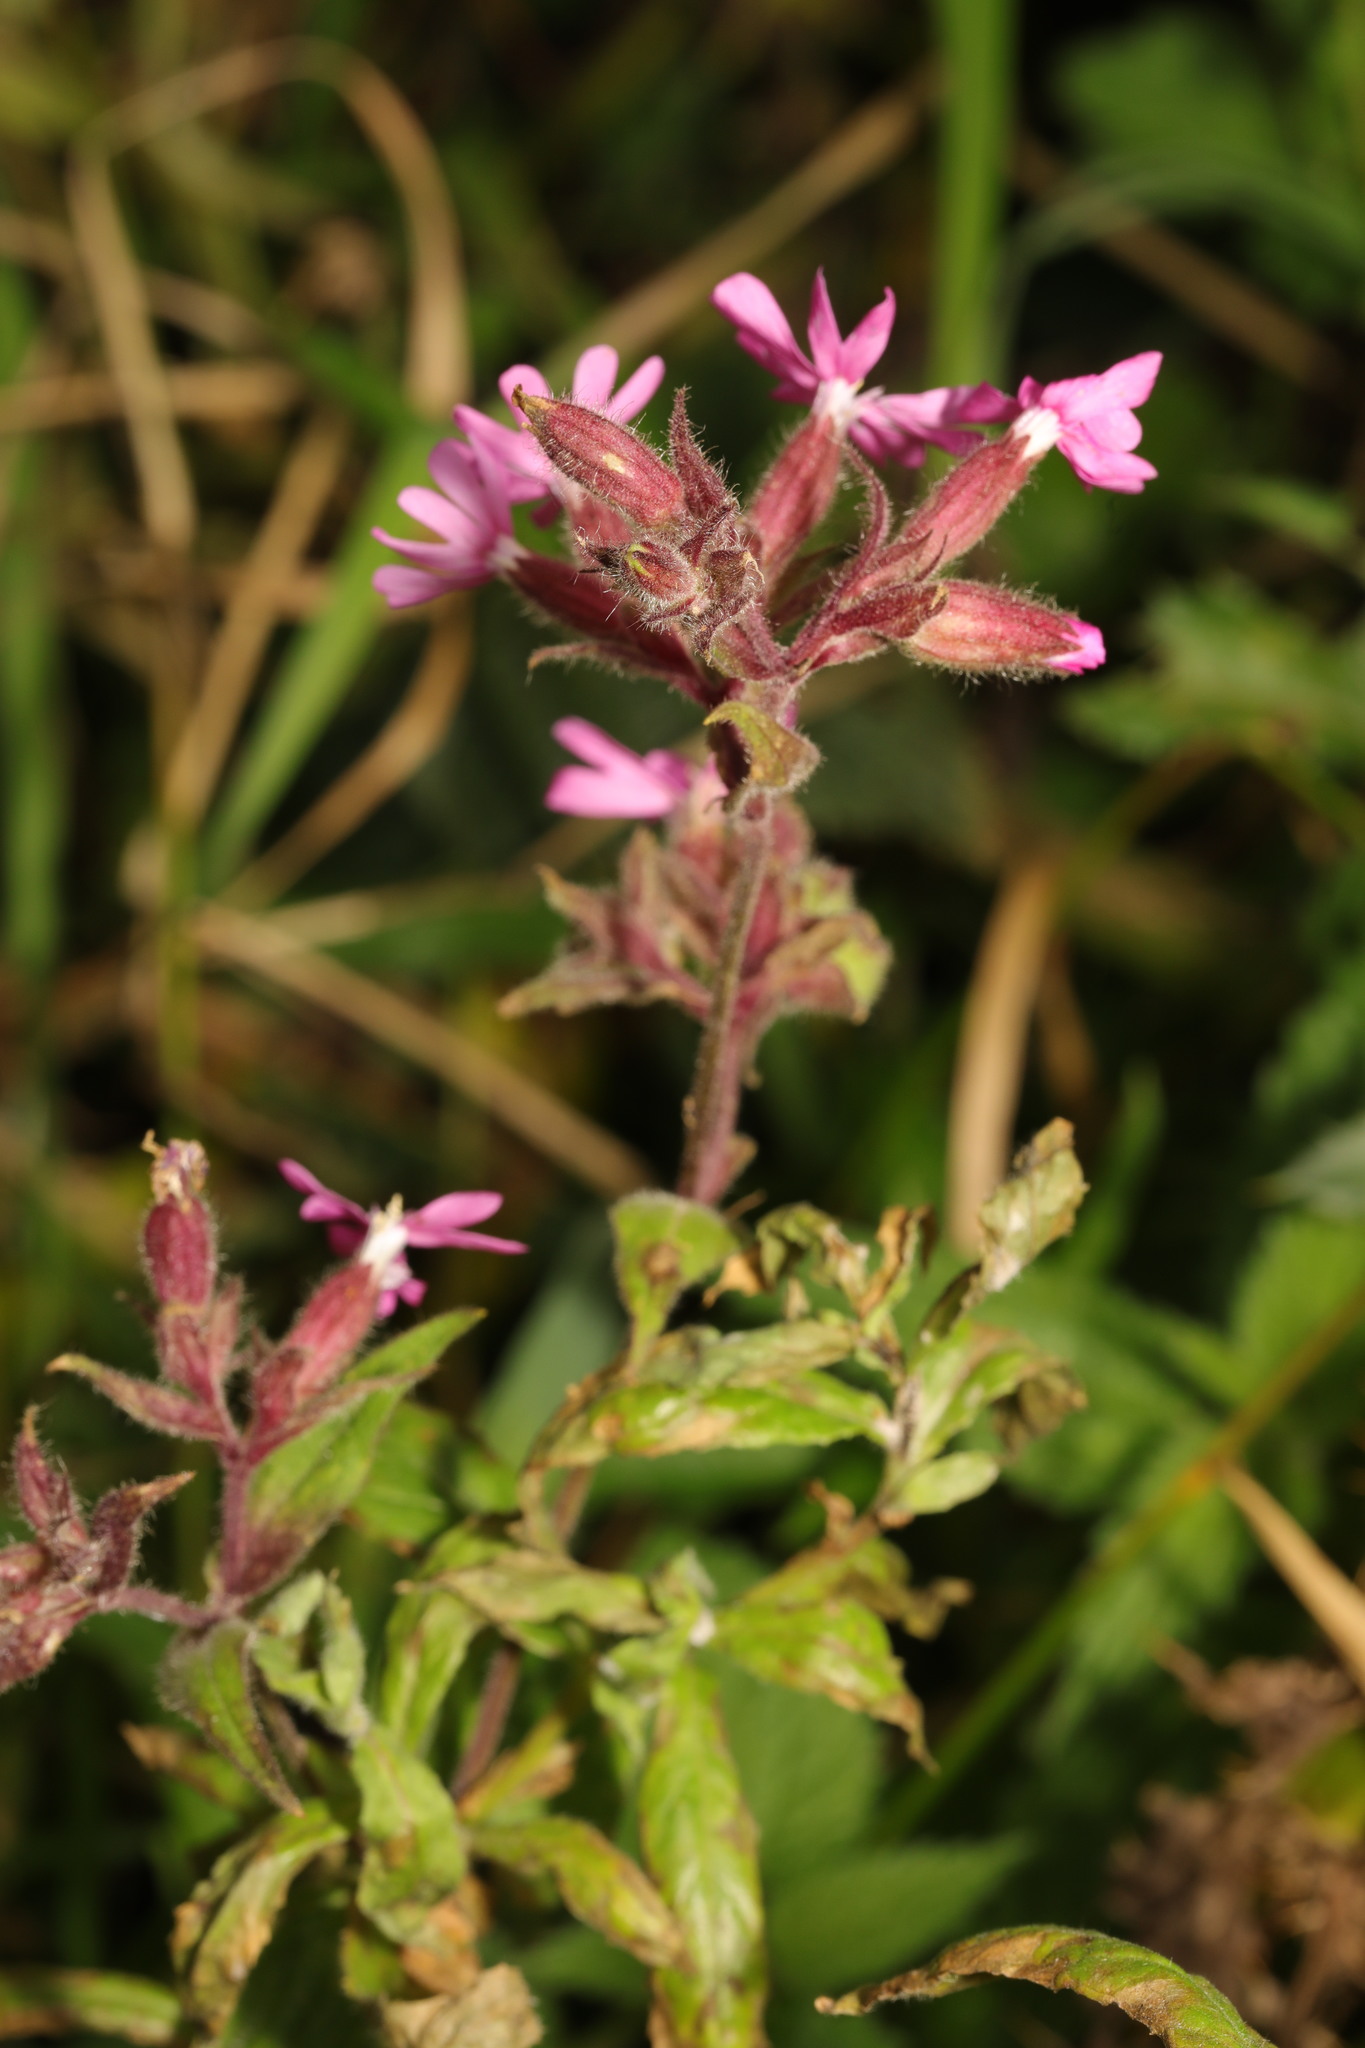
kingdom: Plantae
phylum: Tracheophyta
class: Magnoliopsida
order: Caryophyllales
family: Caryophyllaceae
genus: Silene
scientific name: Silene dioica
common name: Red campion
